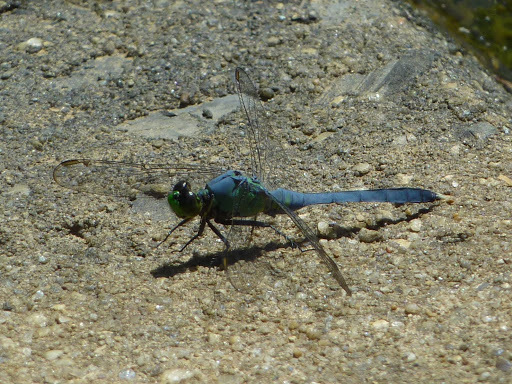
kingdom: Animalia
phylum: Arthropoda
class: Insecta
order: Odonata
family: Libellulidae
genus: Erythemis
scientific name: Erythemis simplicicollis
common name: Eastern pondhawk
